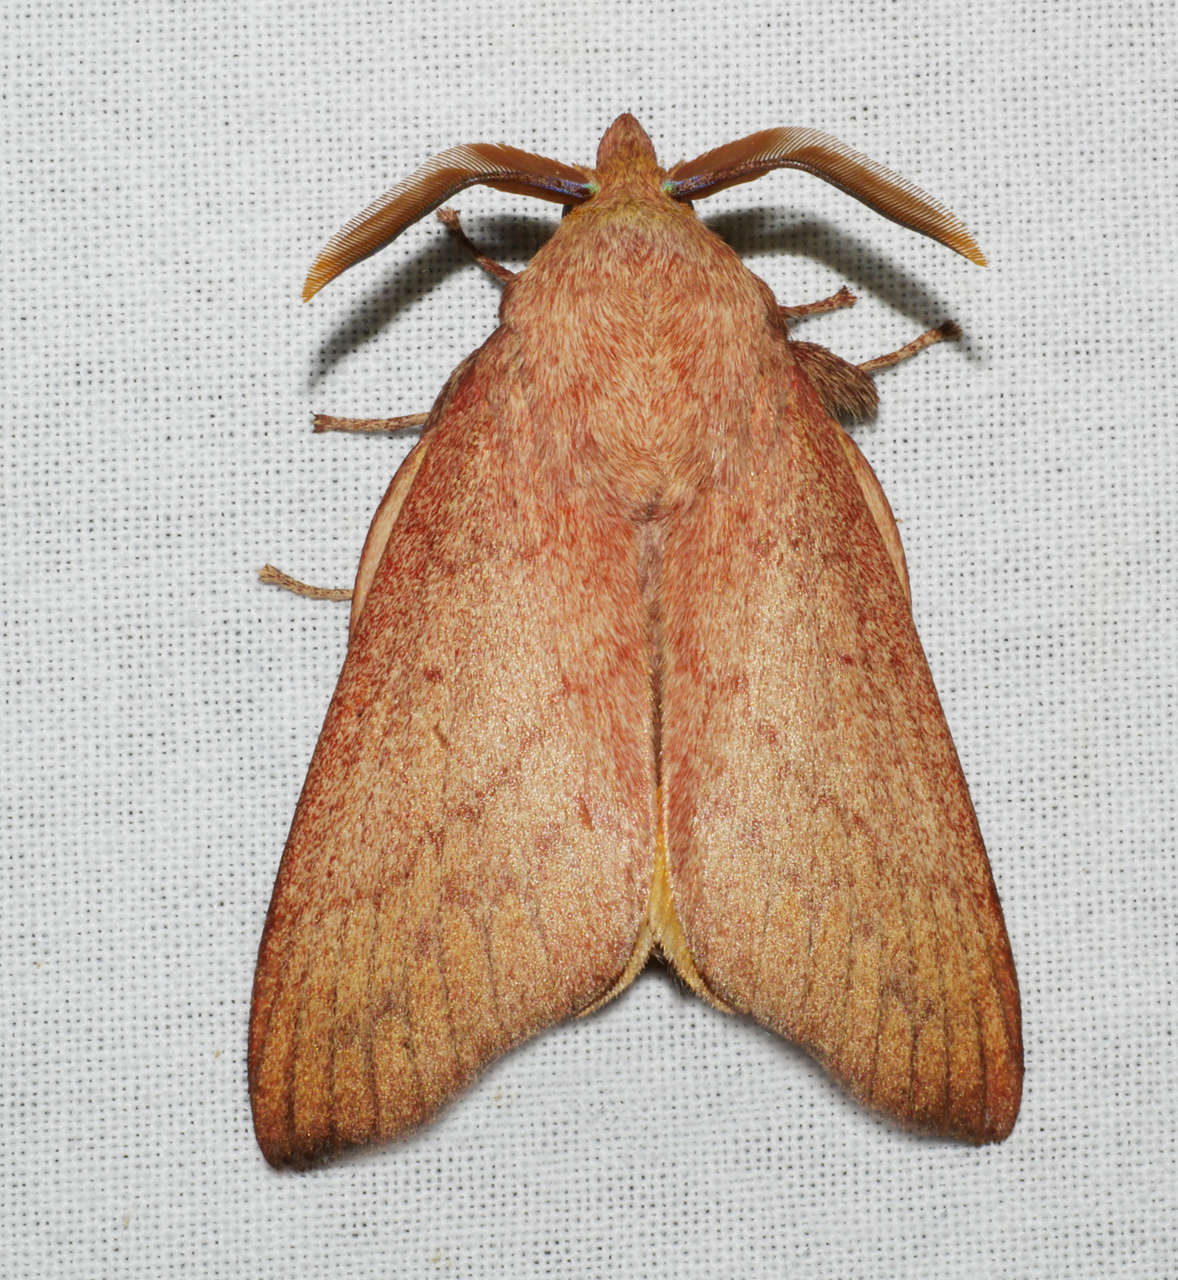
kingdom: Animalia
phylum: Arthropoda
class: Insecta
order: Lepidoptera
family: Lasiocampidae
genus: Entometa
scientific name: Entometa fervens
